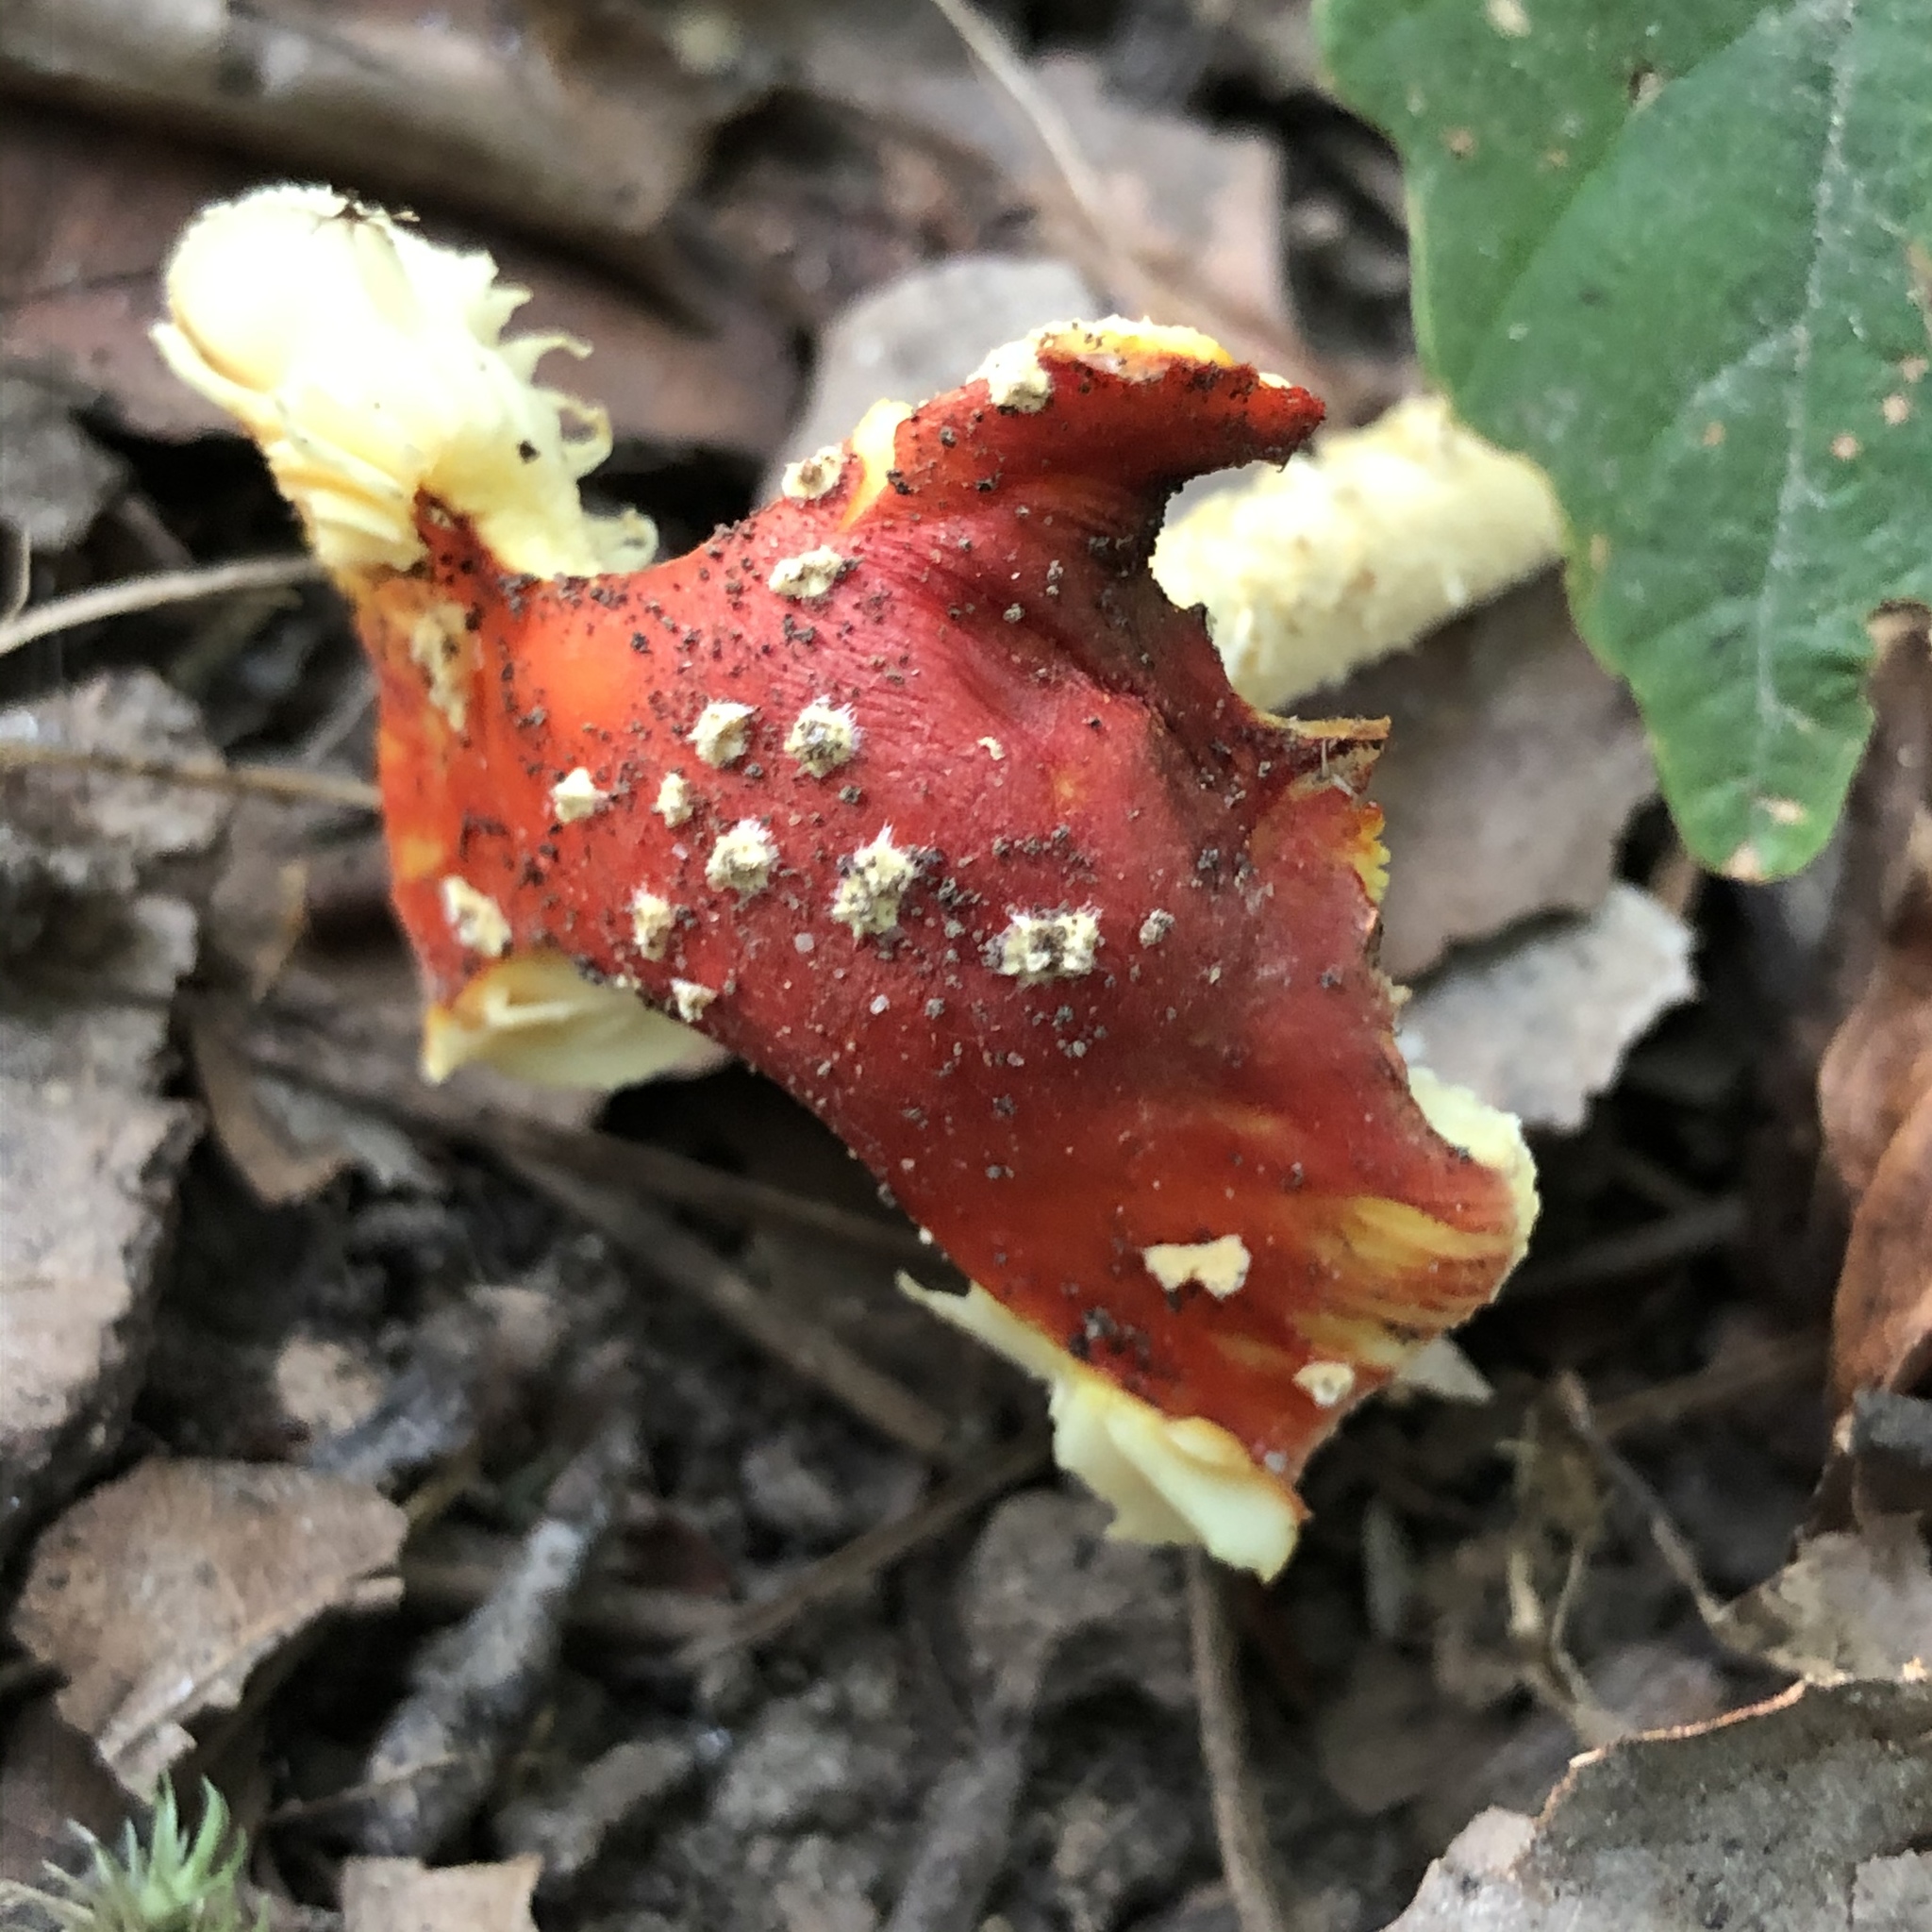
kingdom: Fungi
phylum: Basidiomycota
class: Agaricomycetes
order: Agaricales
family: Amanitaceae
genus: Amanita
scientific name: Amanita parcivolvata
